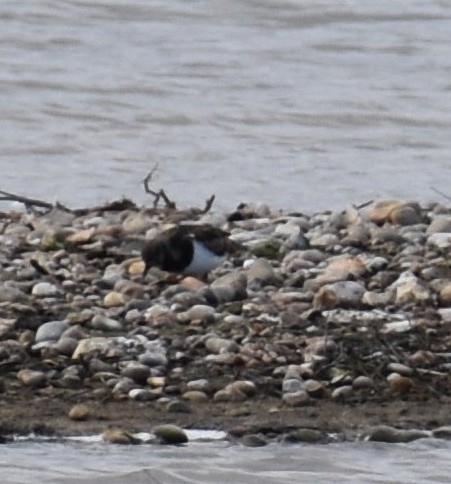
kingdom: Animalia
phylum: Chordata
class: Aves
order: Charadriiformes
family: Scolopacidae
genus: Arenaria
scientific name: Arenaria interpres
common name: Ruddy turnstone
